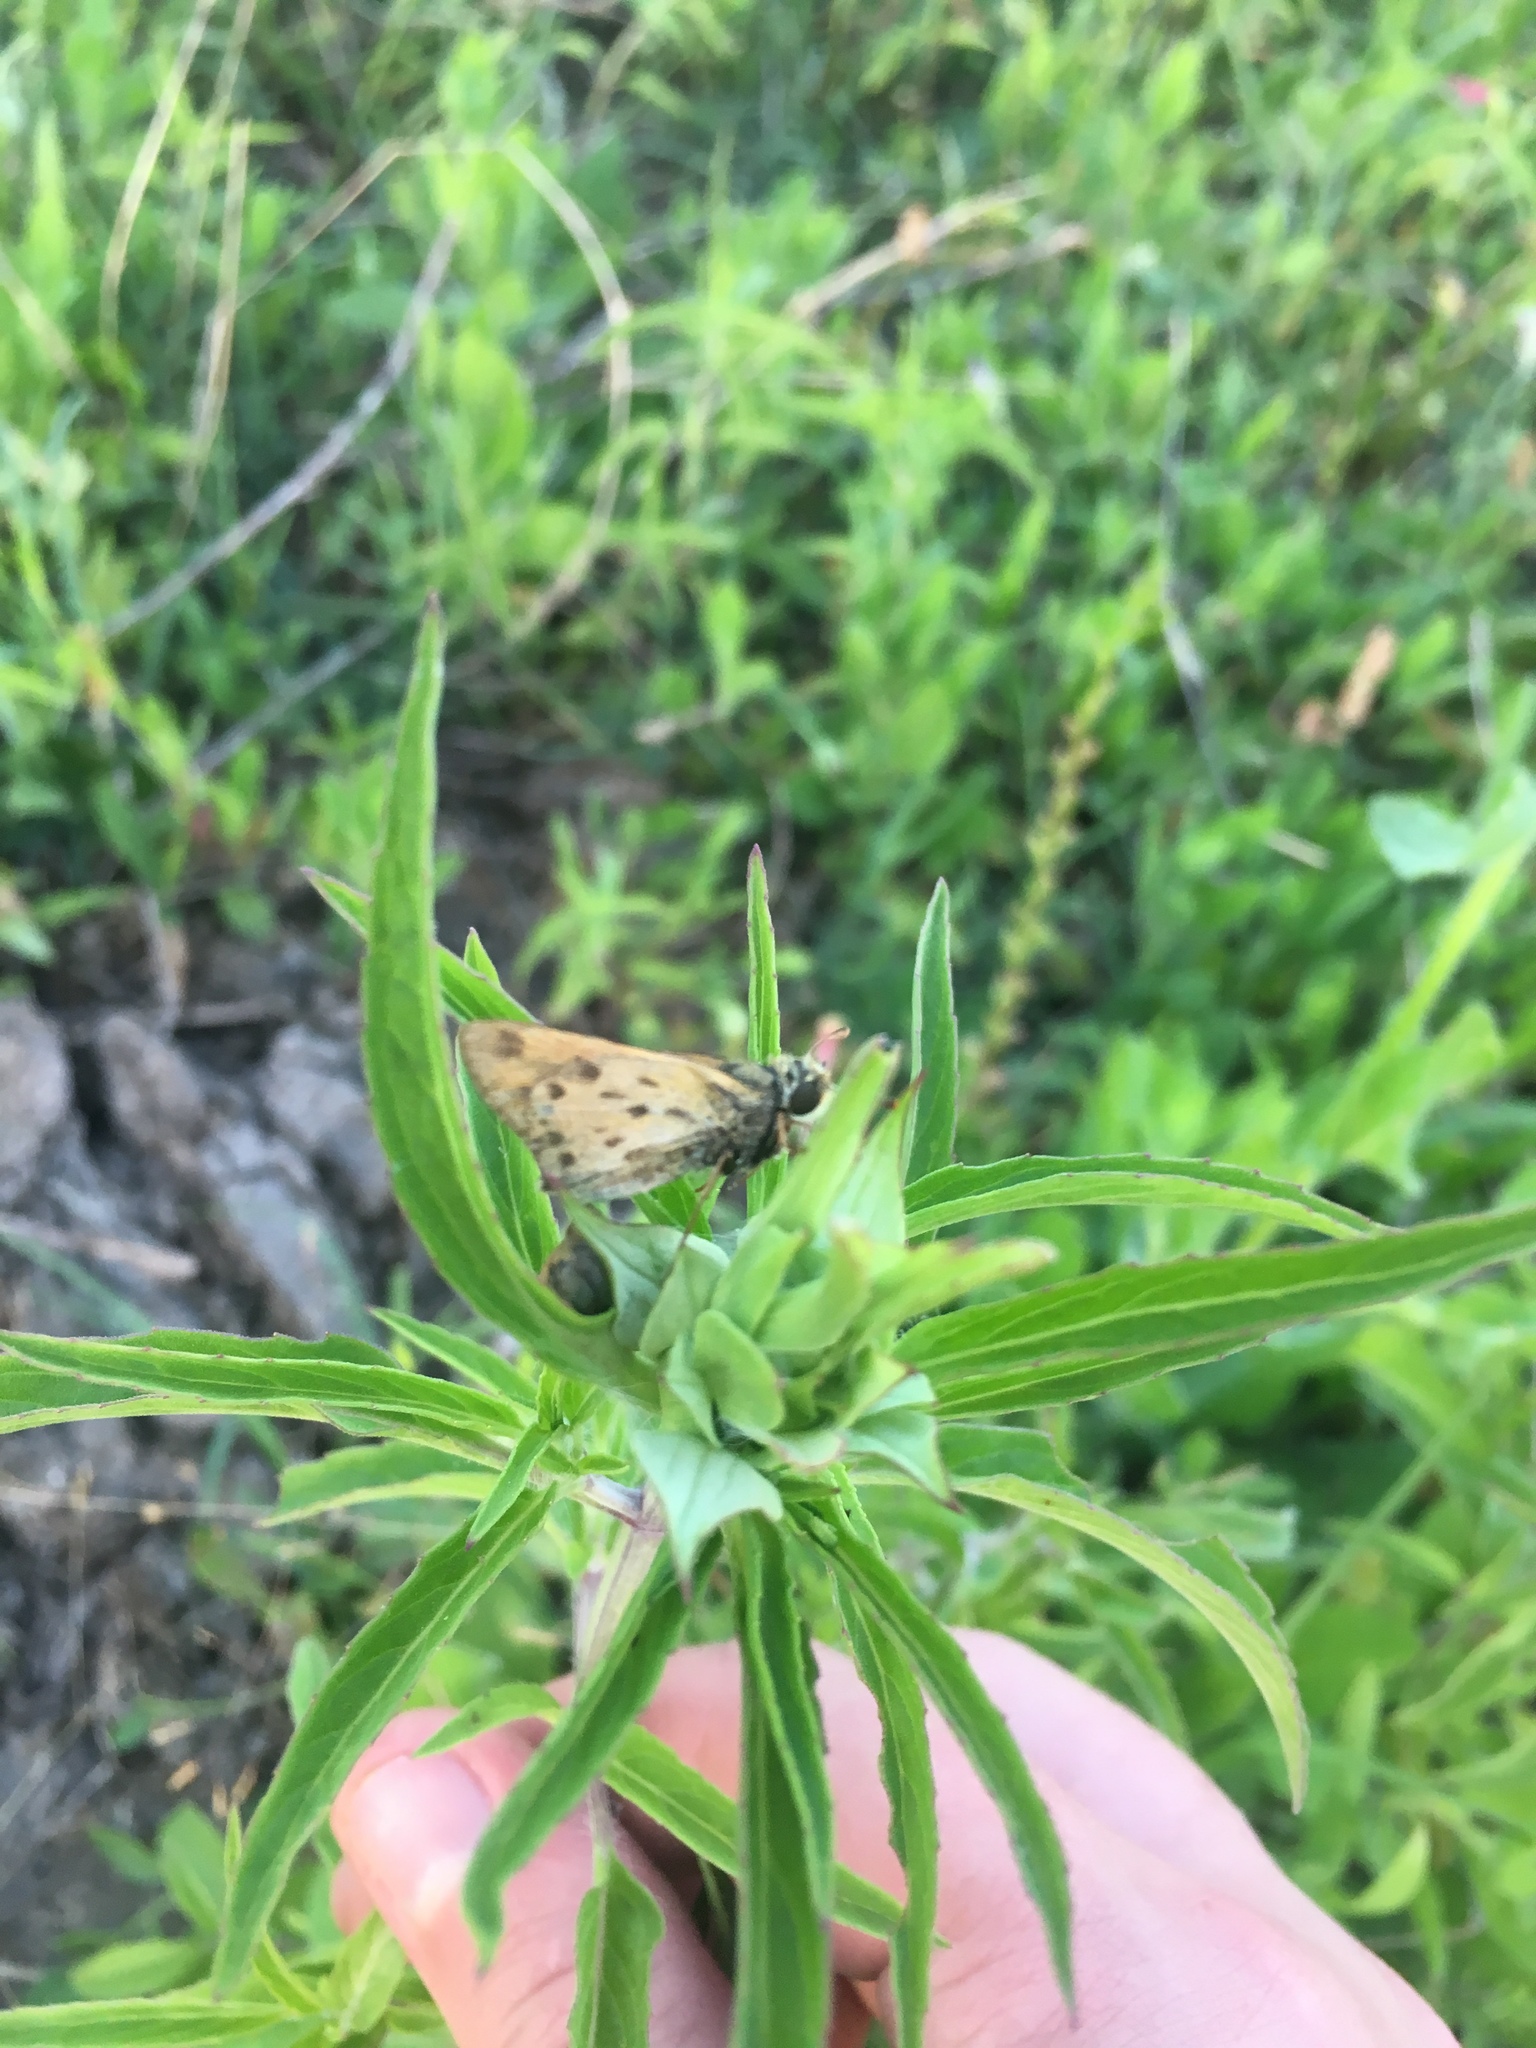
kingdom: Animalia
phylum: Arthropoda
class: Insecta
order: Lepidoptera
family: Hesperiidae
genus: Hylephila
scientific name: Hylephila phyleus
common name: Fiery skipper
